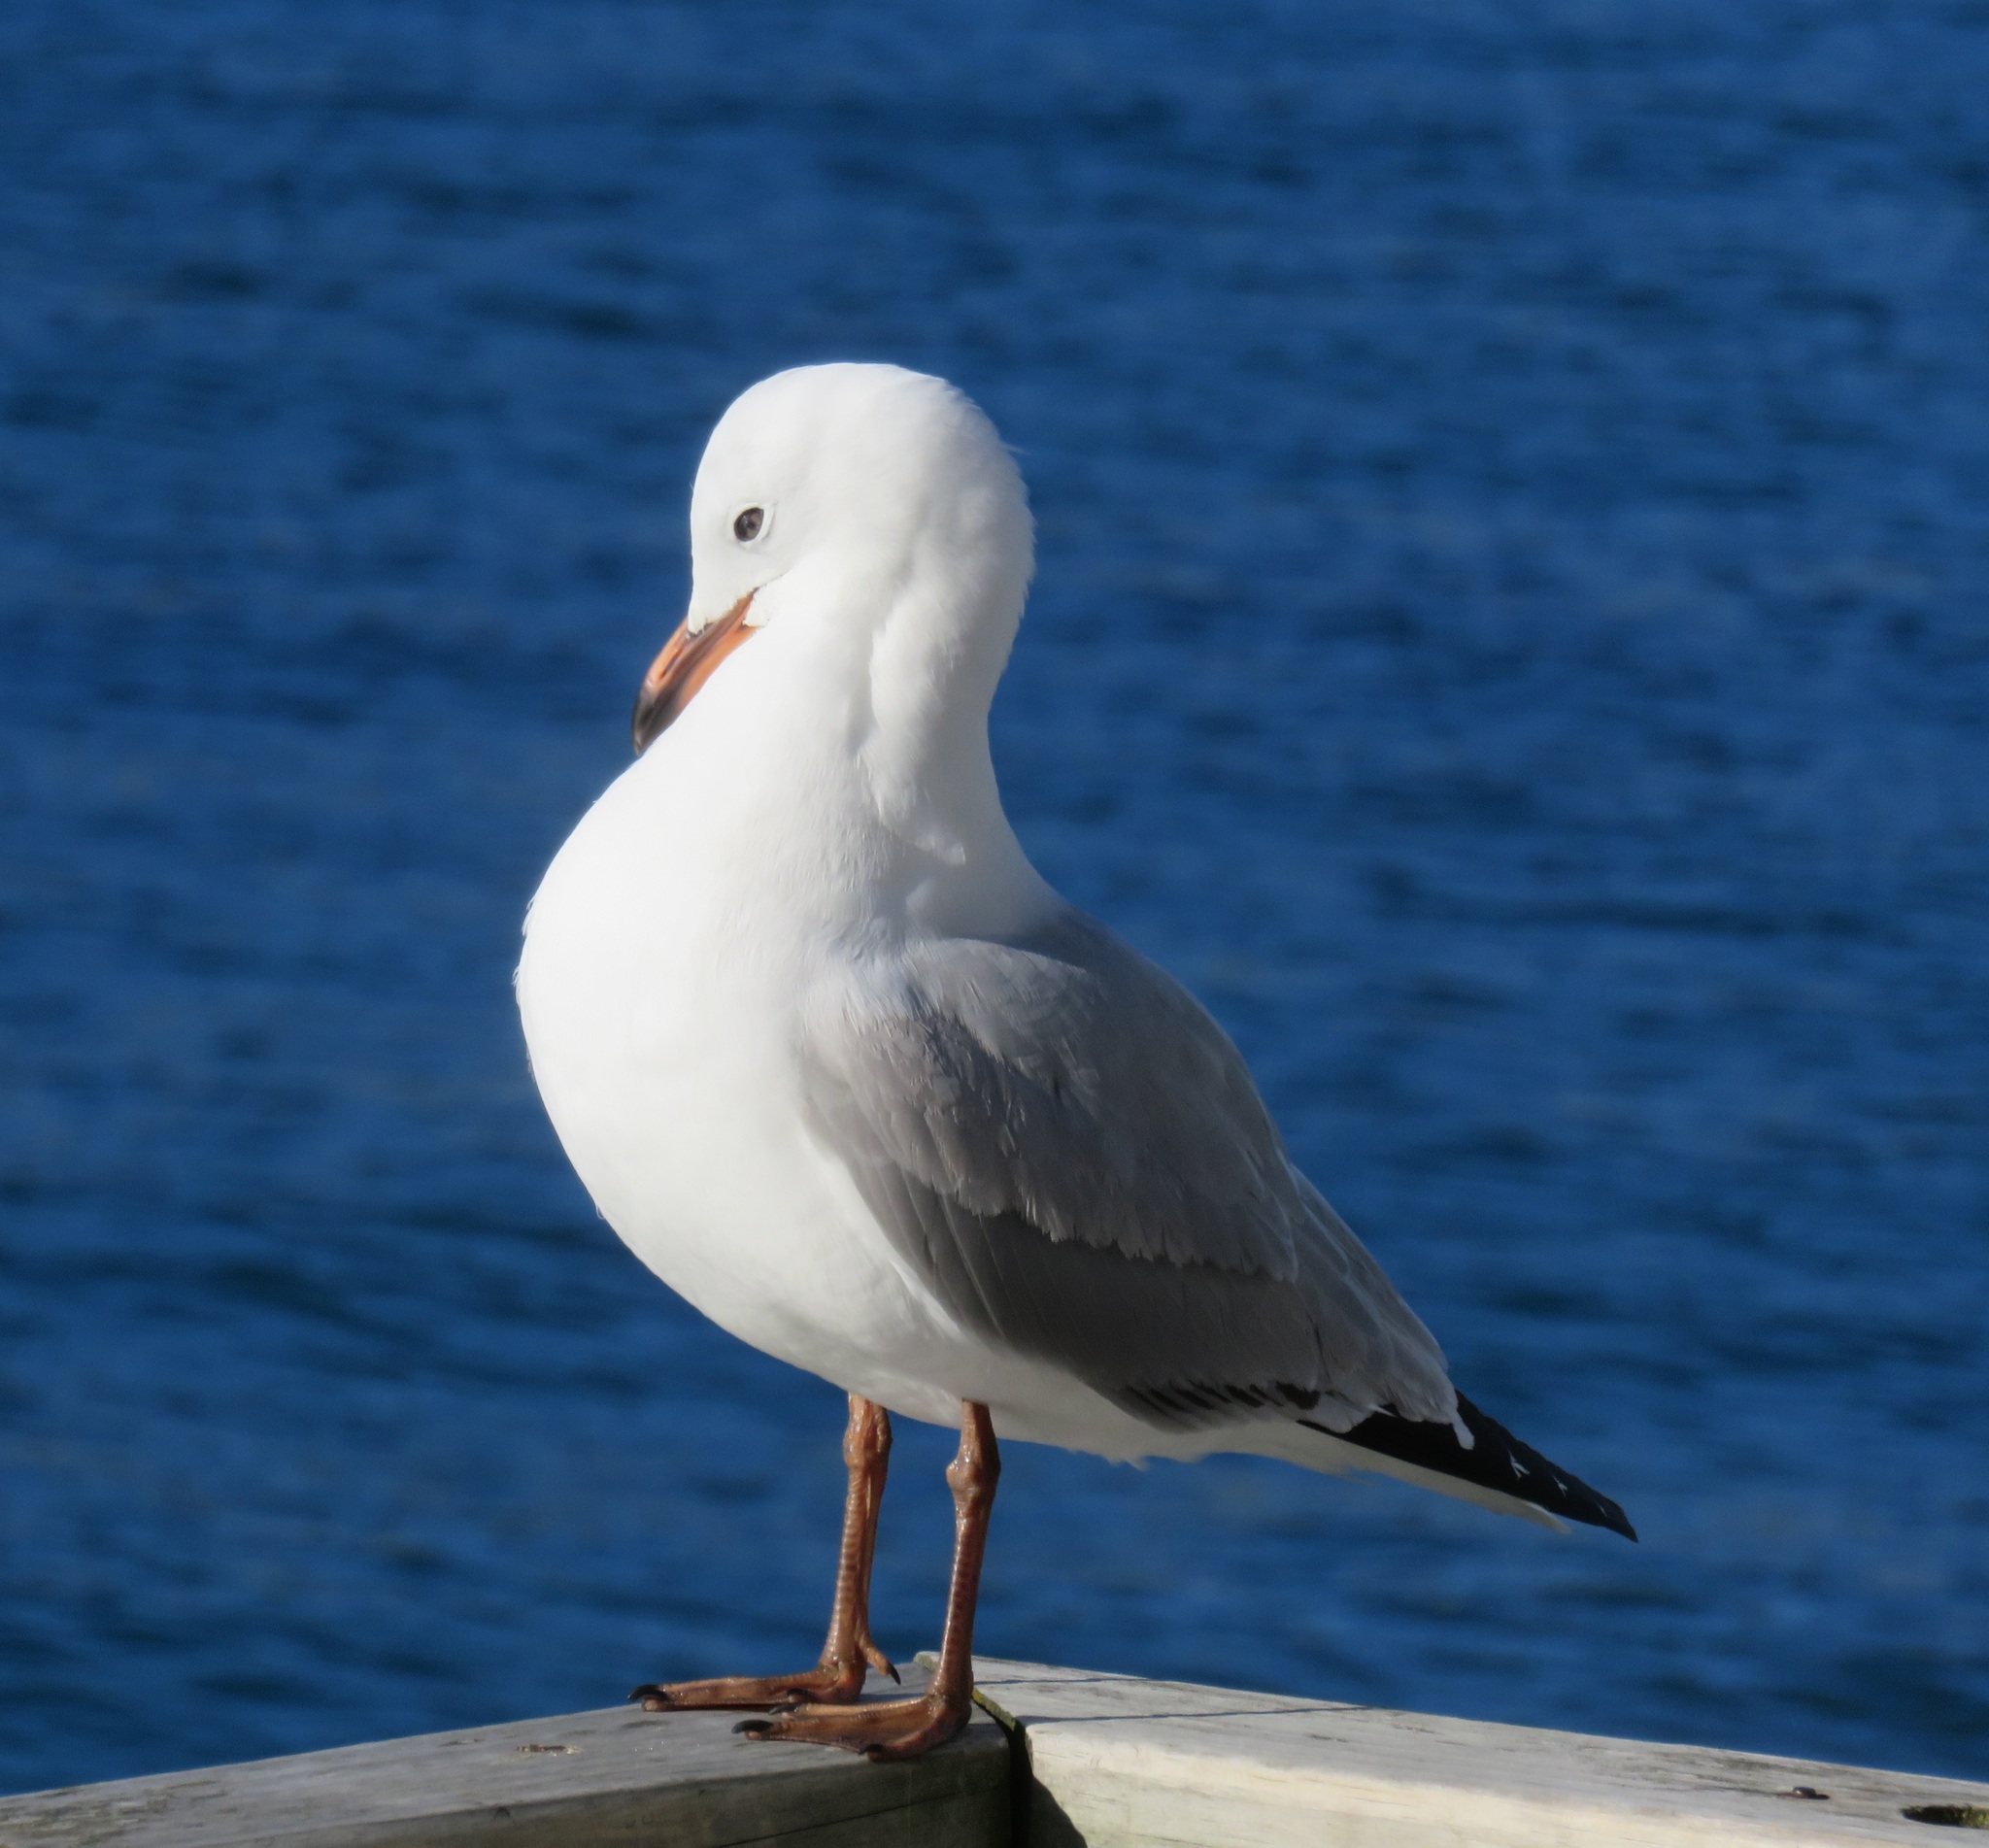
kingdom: Animalia
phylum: Chordata
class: Aves
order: Charadriiformes
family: Laridae
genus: Chroicocephalus
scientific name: Chroicocephalus novaehollandiae
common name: Silver gull
